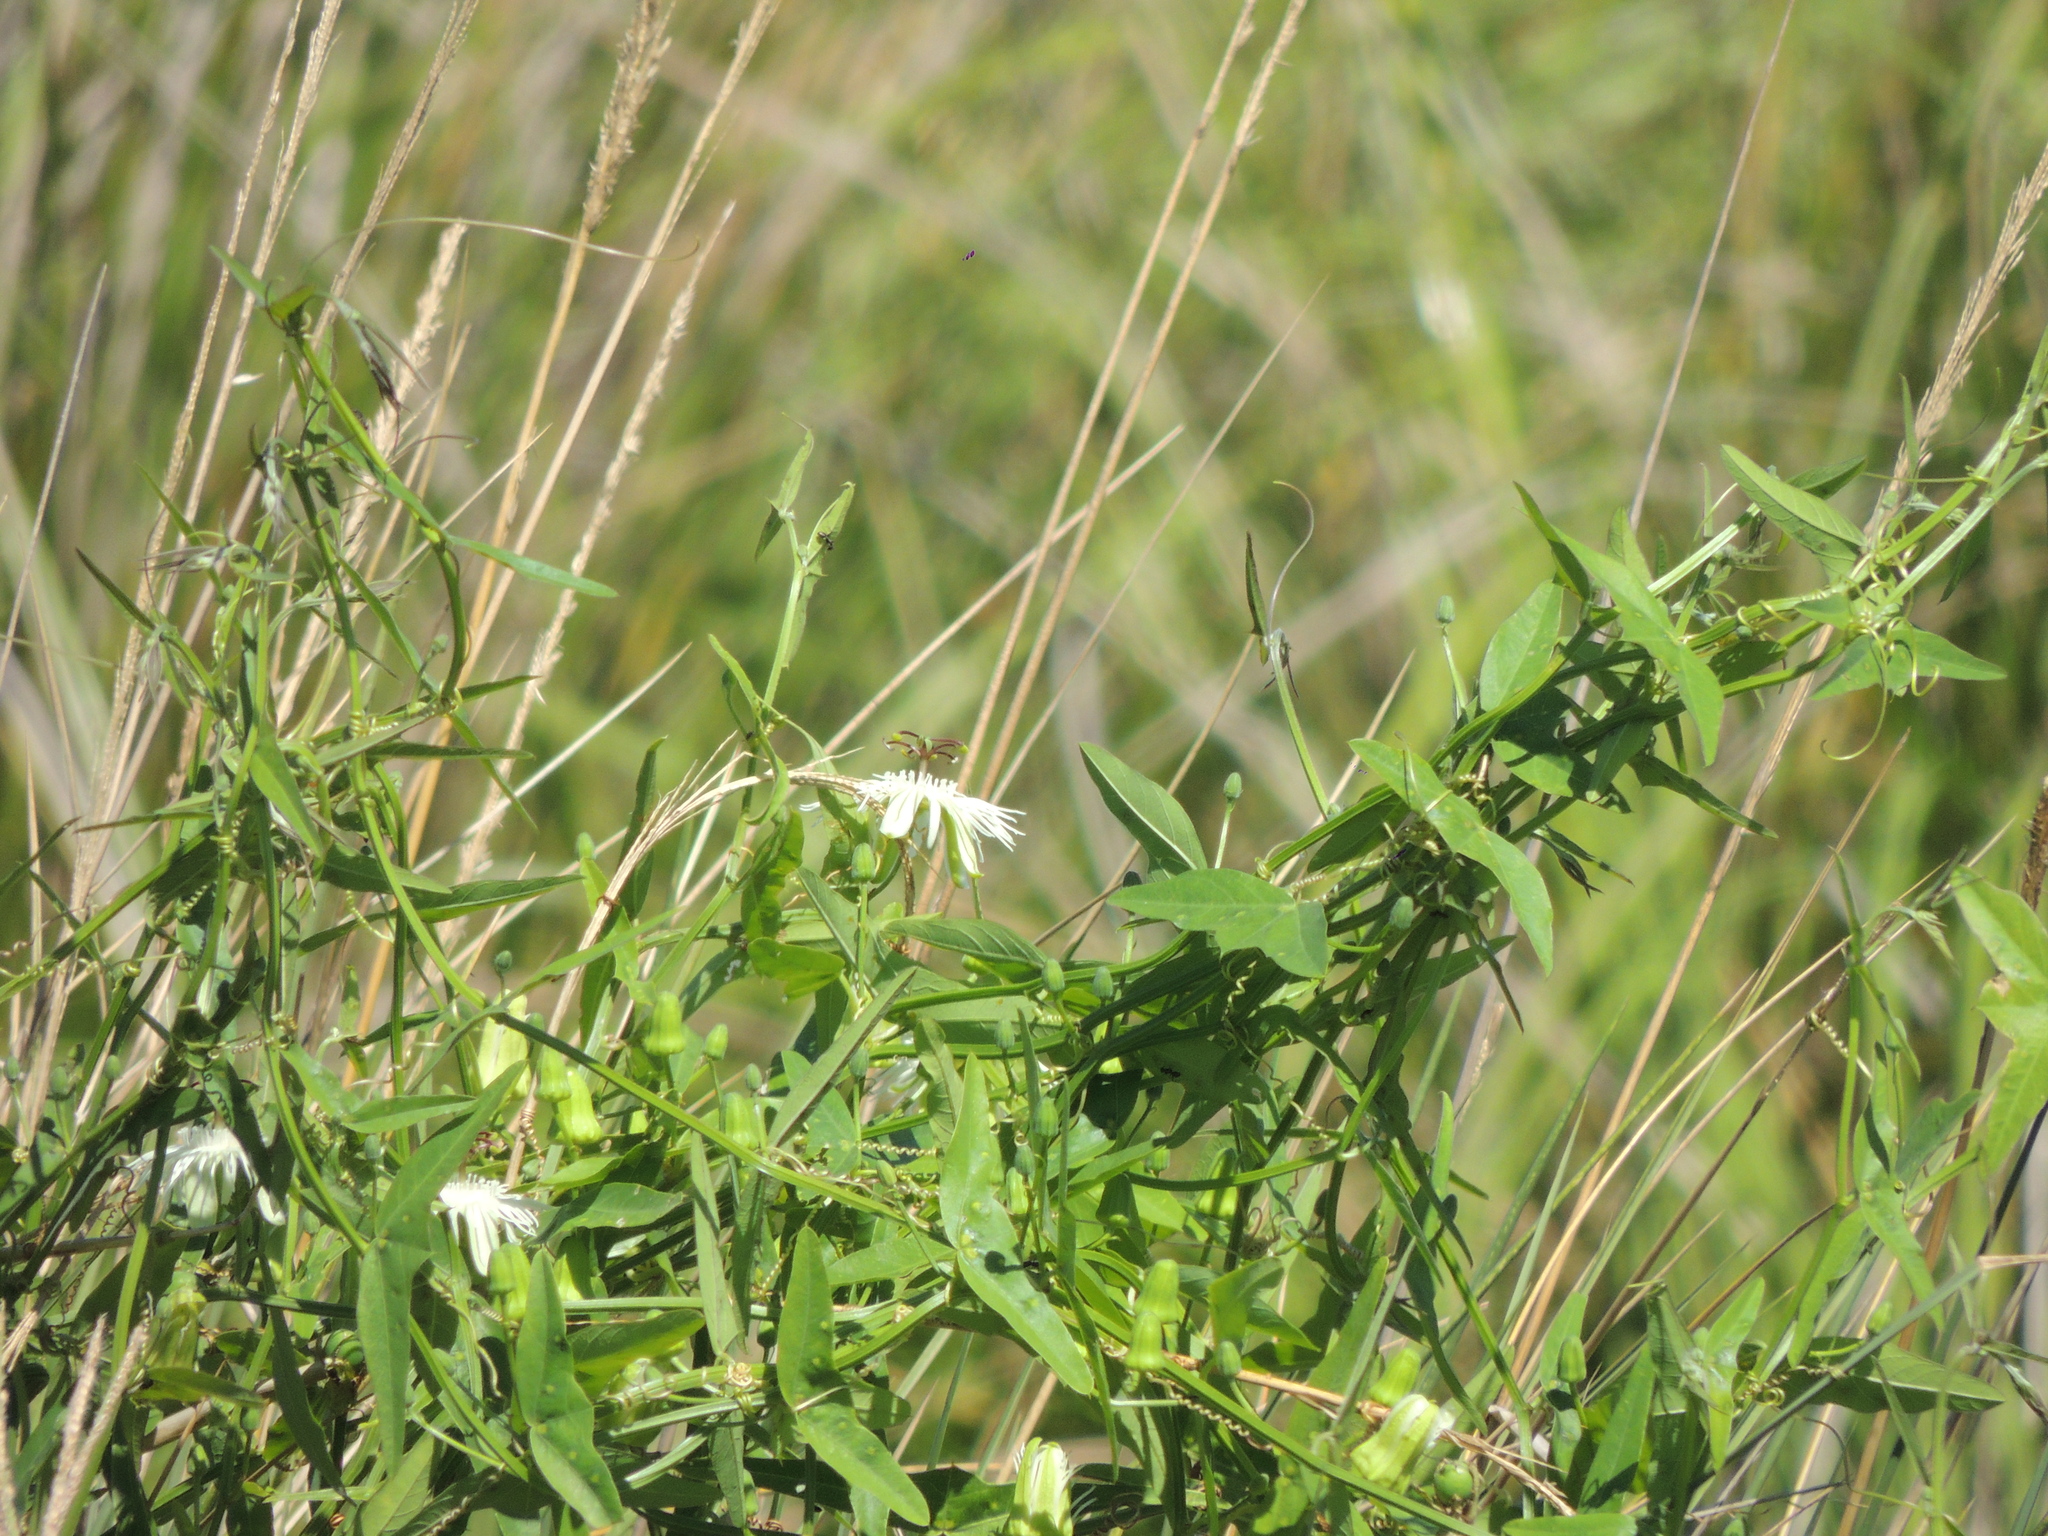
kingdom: Plantae
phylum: Tracheophyta
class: Magnoliopsida
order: Malpighiales
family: Passifloraceae
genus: Passiflora
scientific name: Passiflora misera
